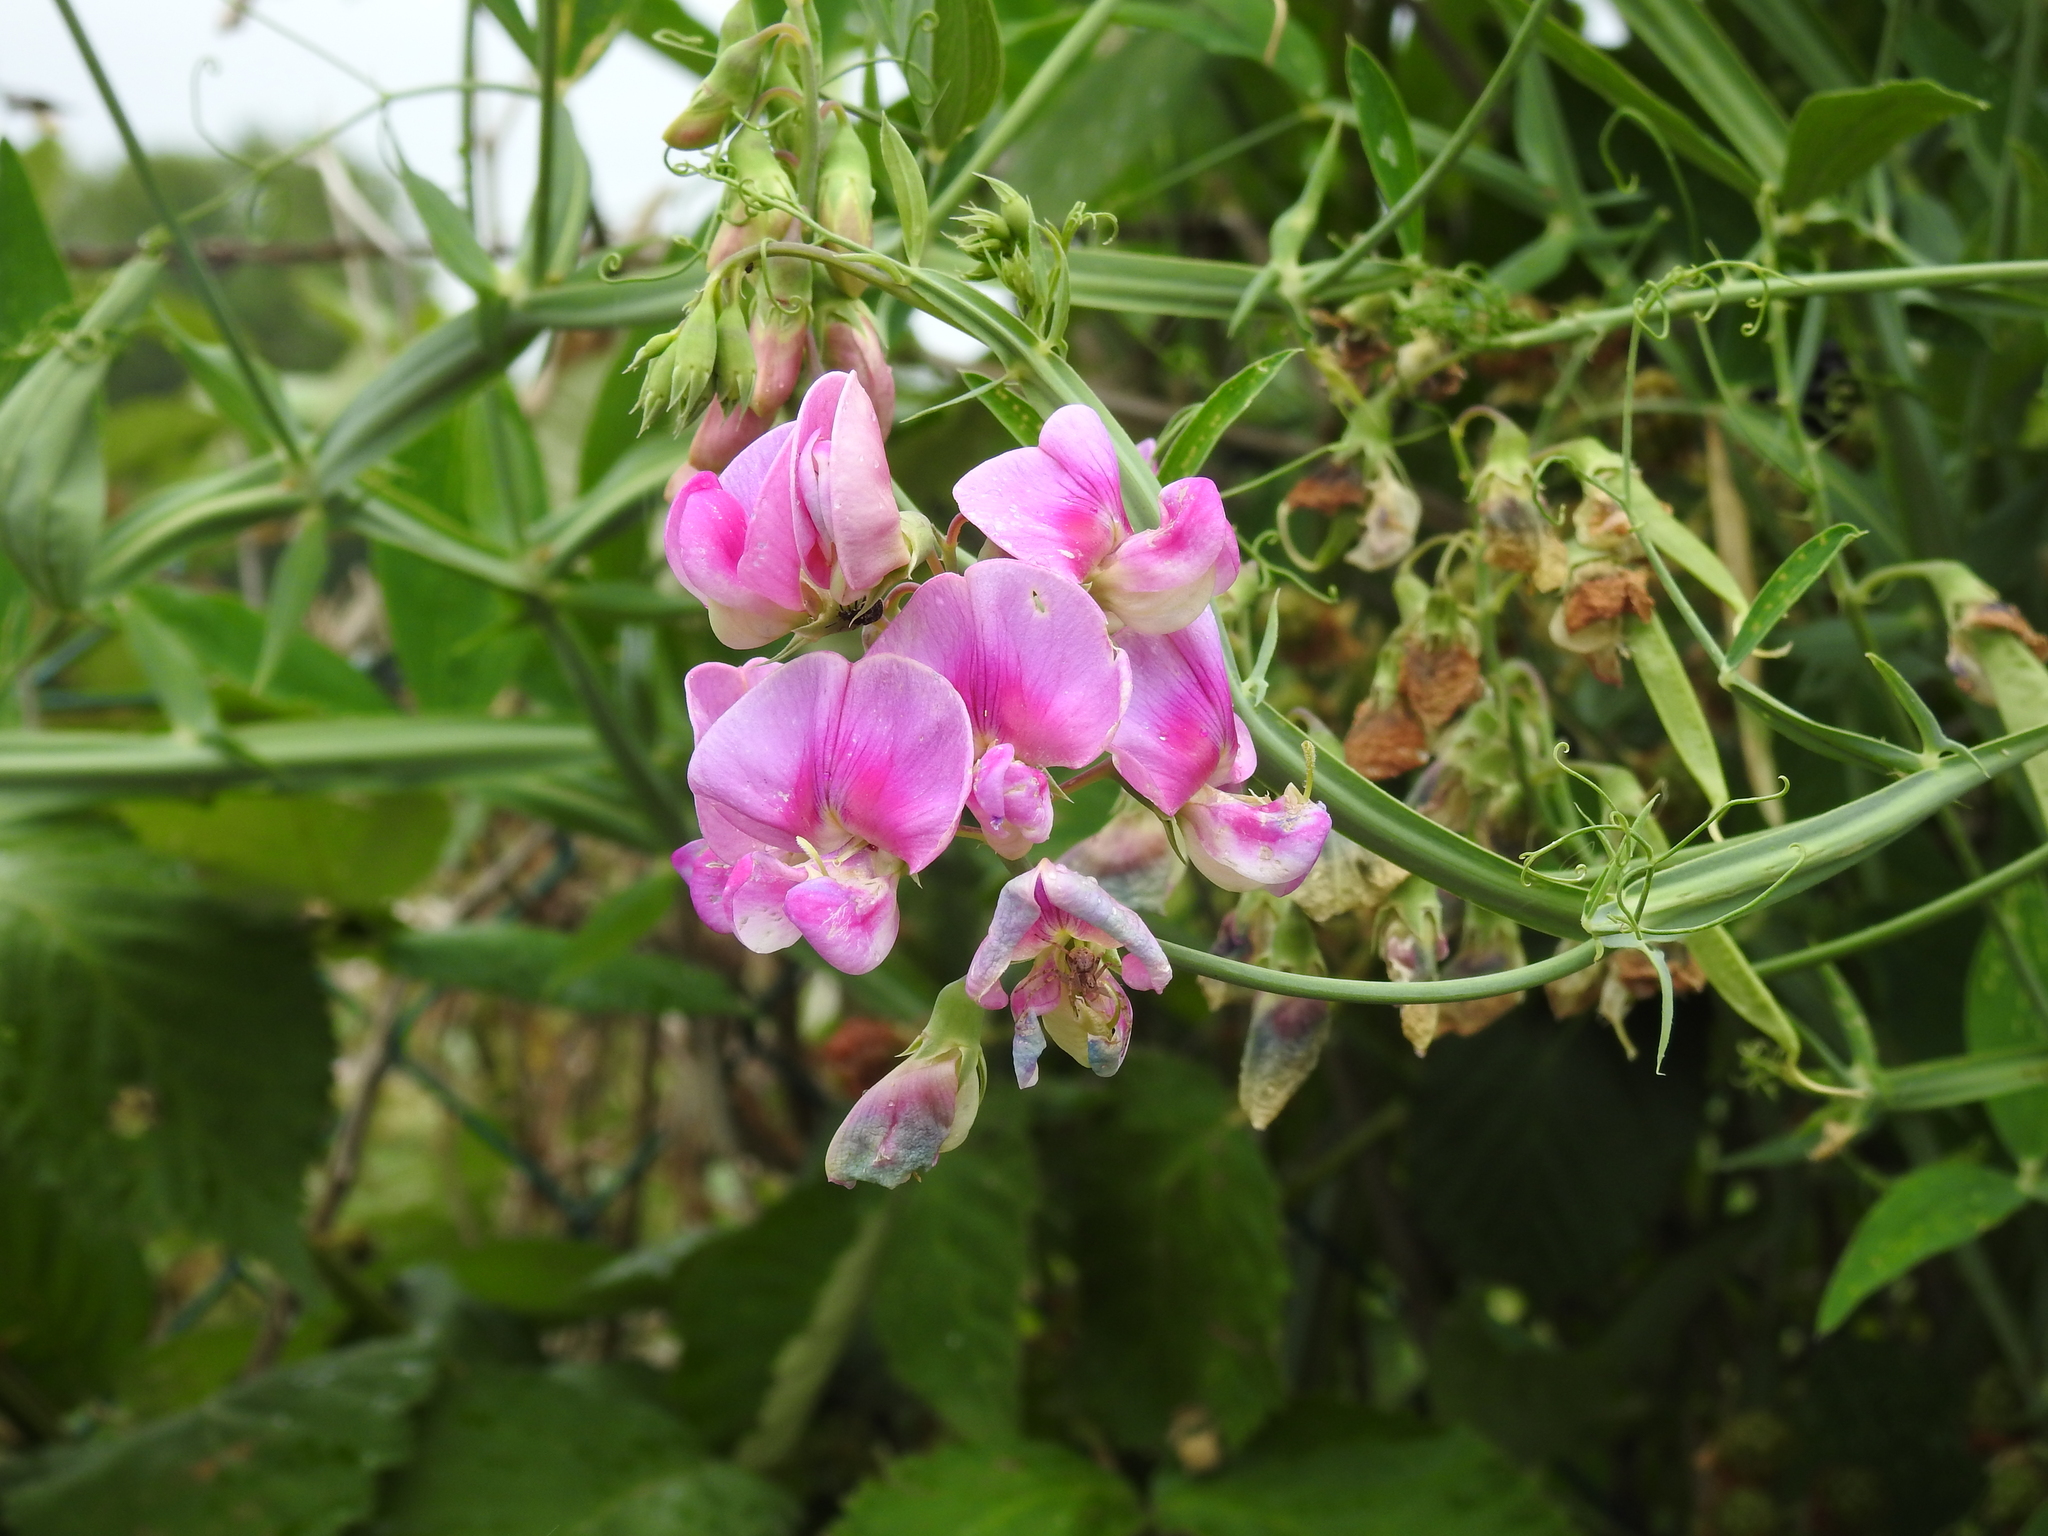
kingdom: Plantae
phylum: Tracheophyta
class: Magnoliopsida
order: Fabales
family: Fabaceae
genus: Lathyrus
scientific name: Lathyrus latifolius
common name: Perennial pea
